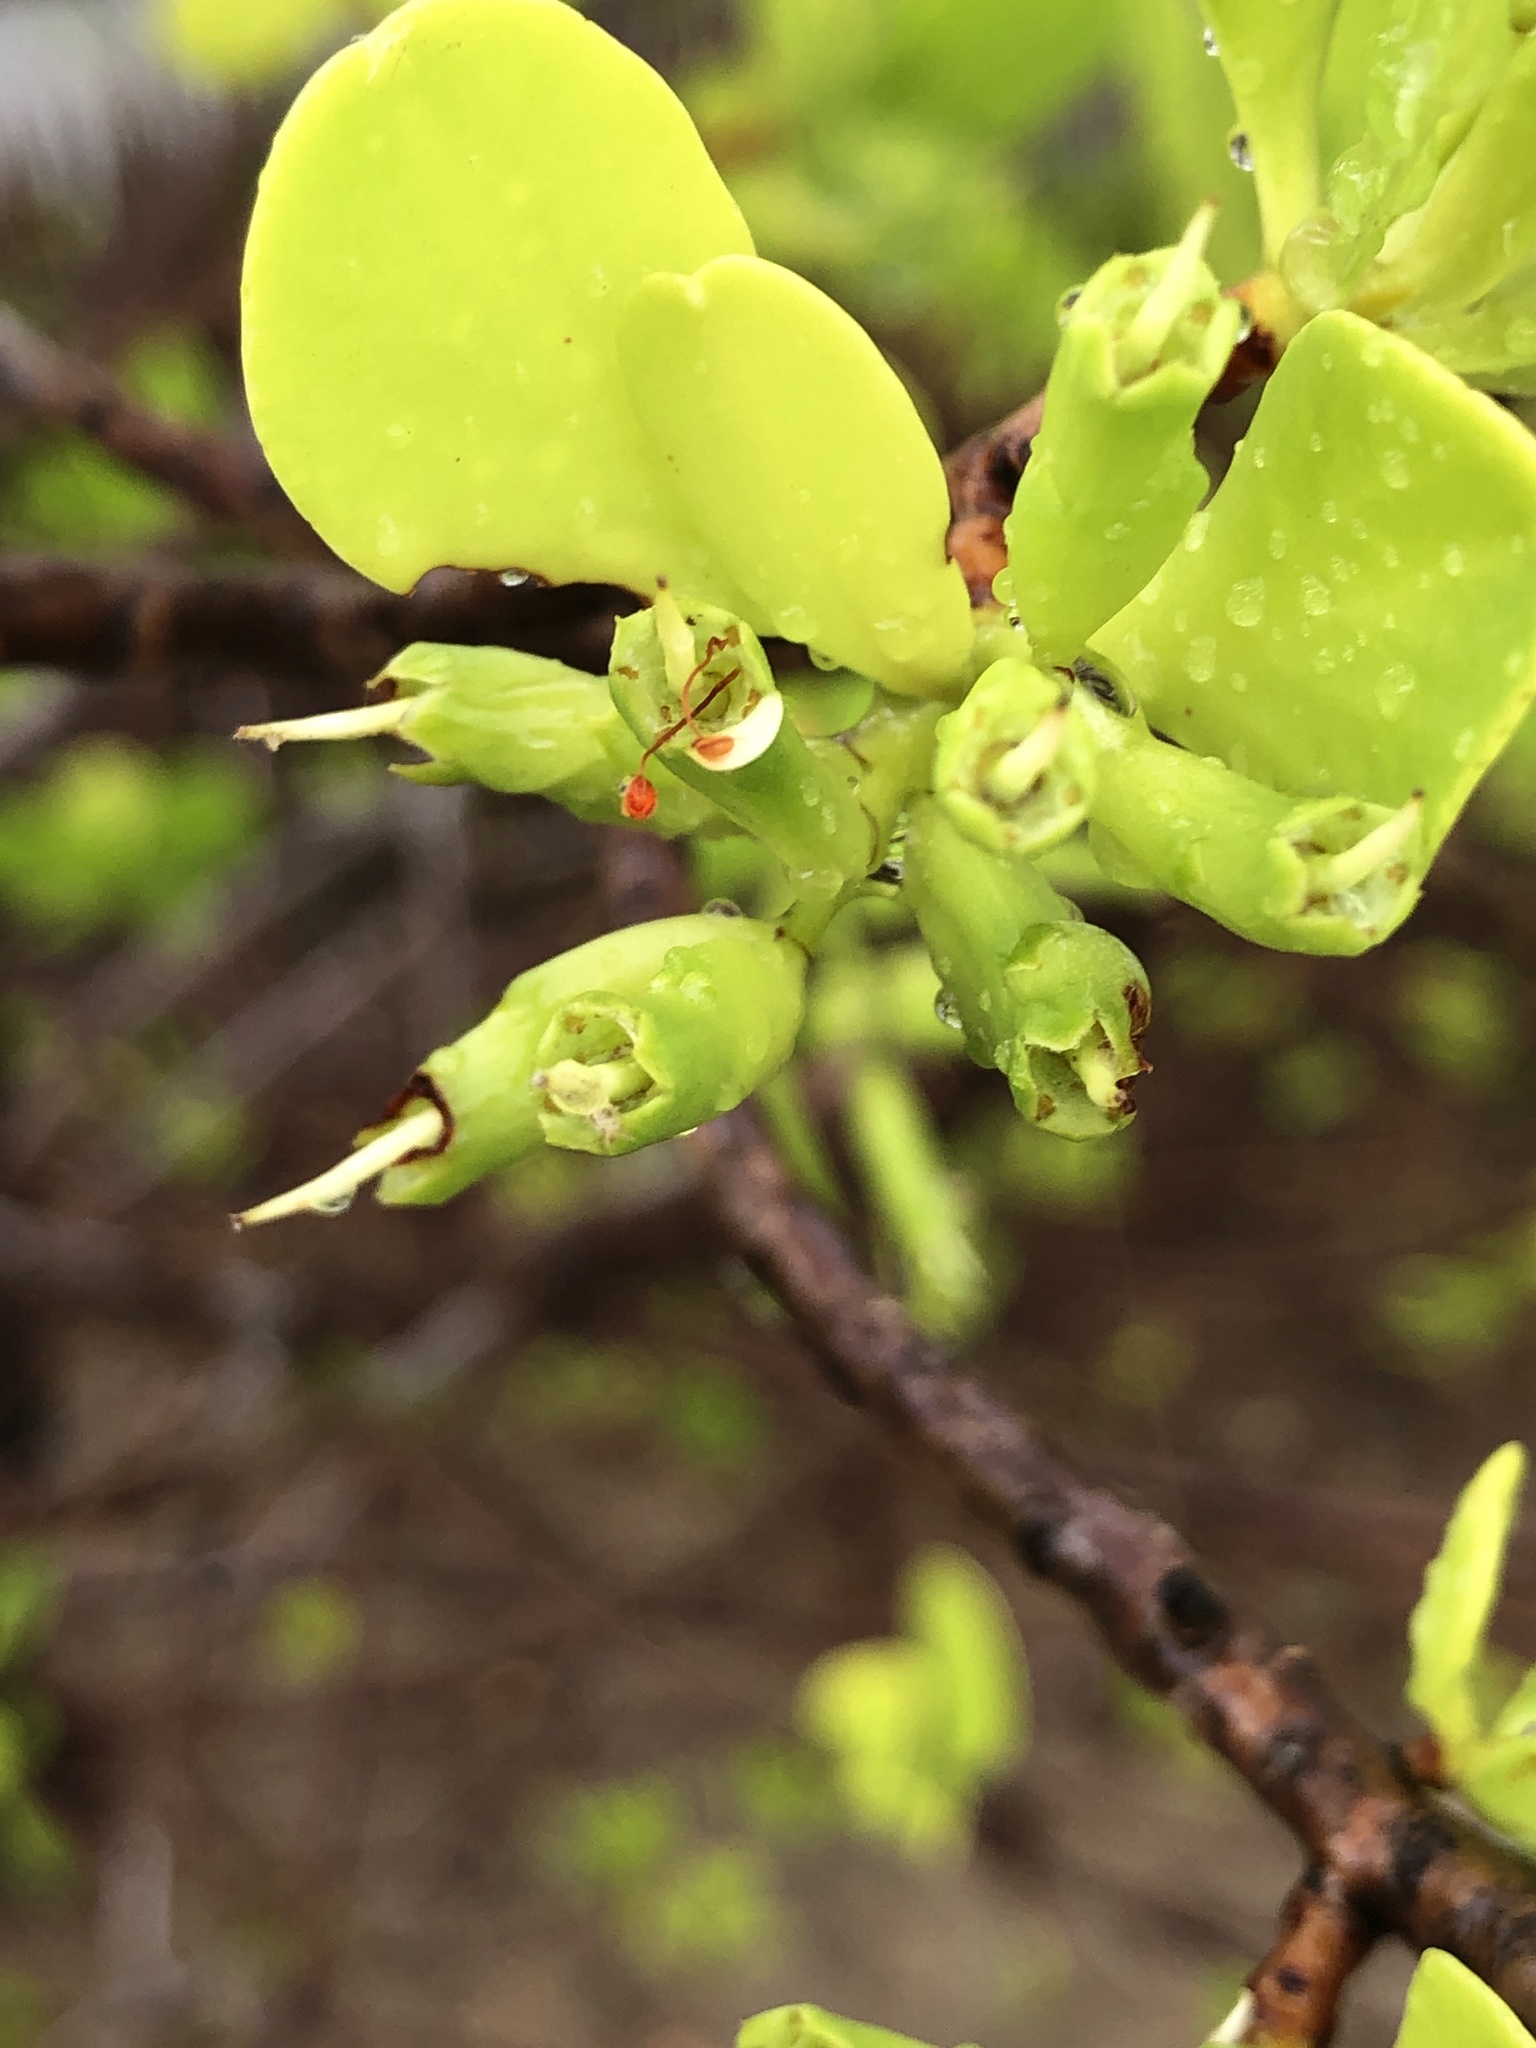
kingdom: Plantae
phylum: Tracheophyta
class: Magnoliopsida
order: Myrtales
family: Combretaceae
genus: Lumnitzera
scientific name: Lumnitzera racemosa
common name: White-flowered black mangrove
